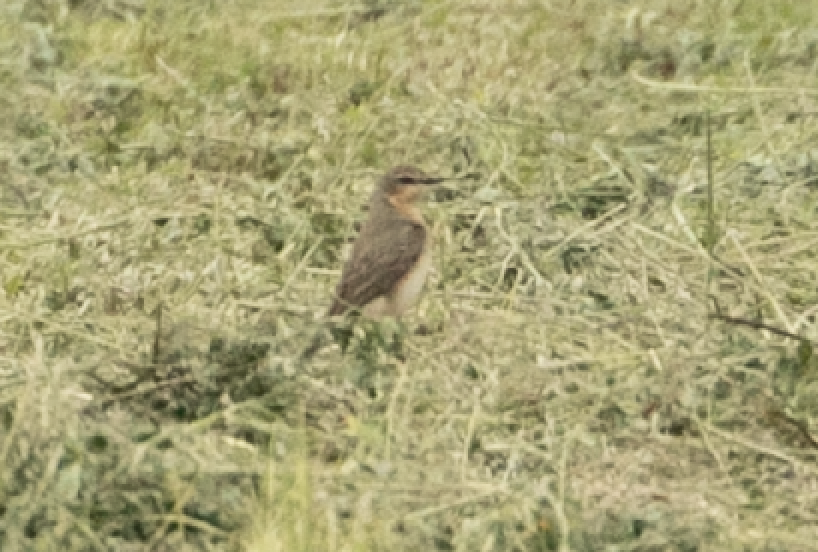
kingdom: Animalia
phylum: Chordata
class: Aves
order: Passeriformes
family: Muscicapidae
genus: Oenanthe
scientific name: Oenanthe oenanthe
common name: Northern wheatear
